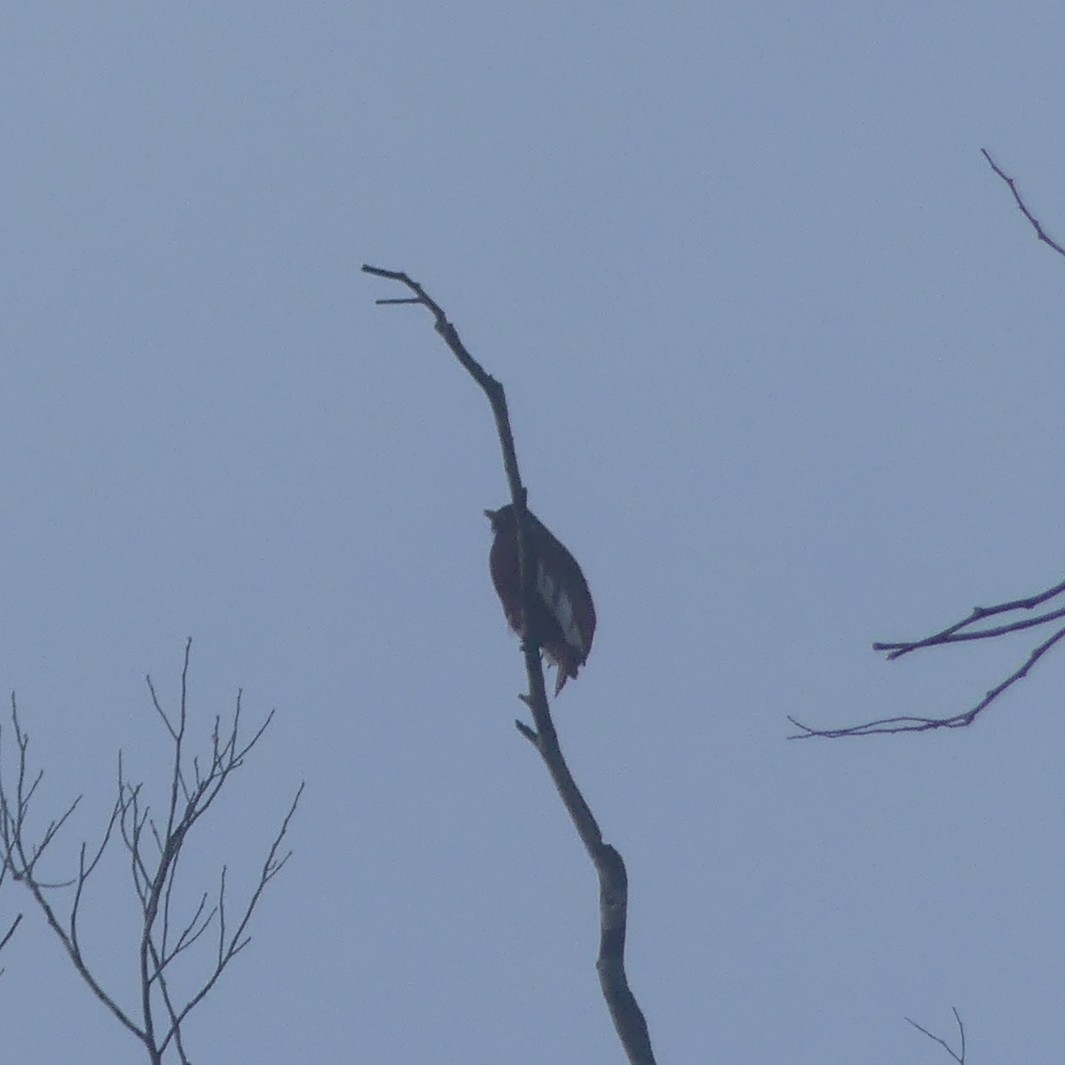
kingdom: Animalia
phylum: Chordata
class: Aves
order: Passeriformes
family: Cotingidae
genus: Xipholena
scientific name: Xipholena punicea
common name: Pompadour cotinga
